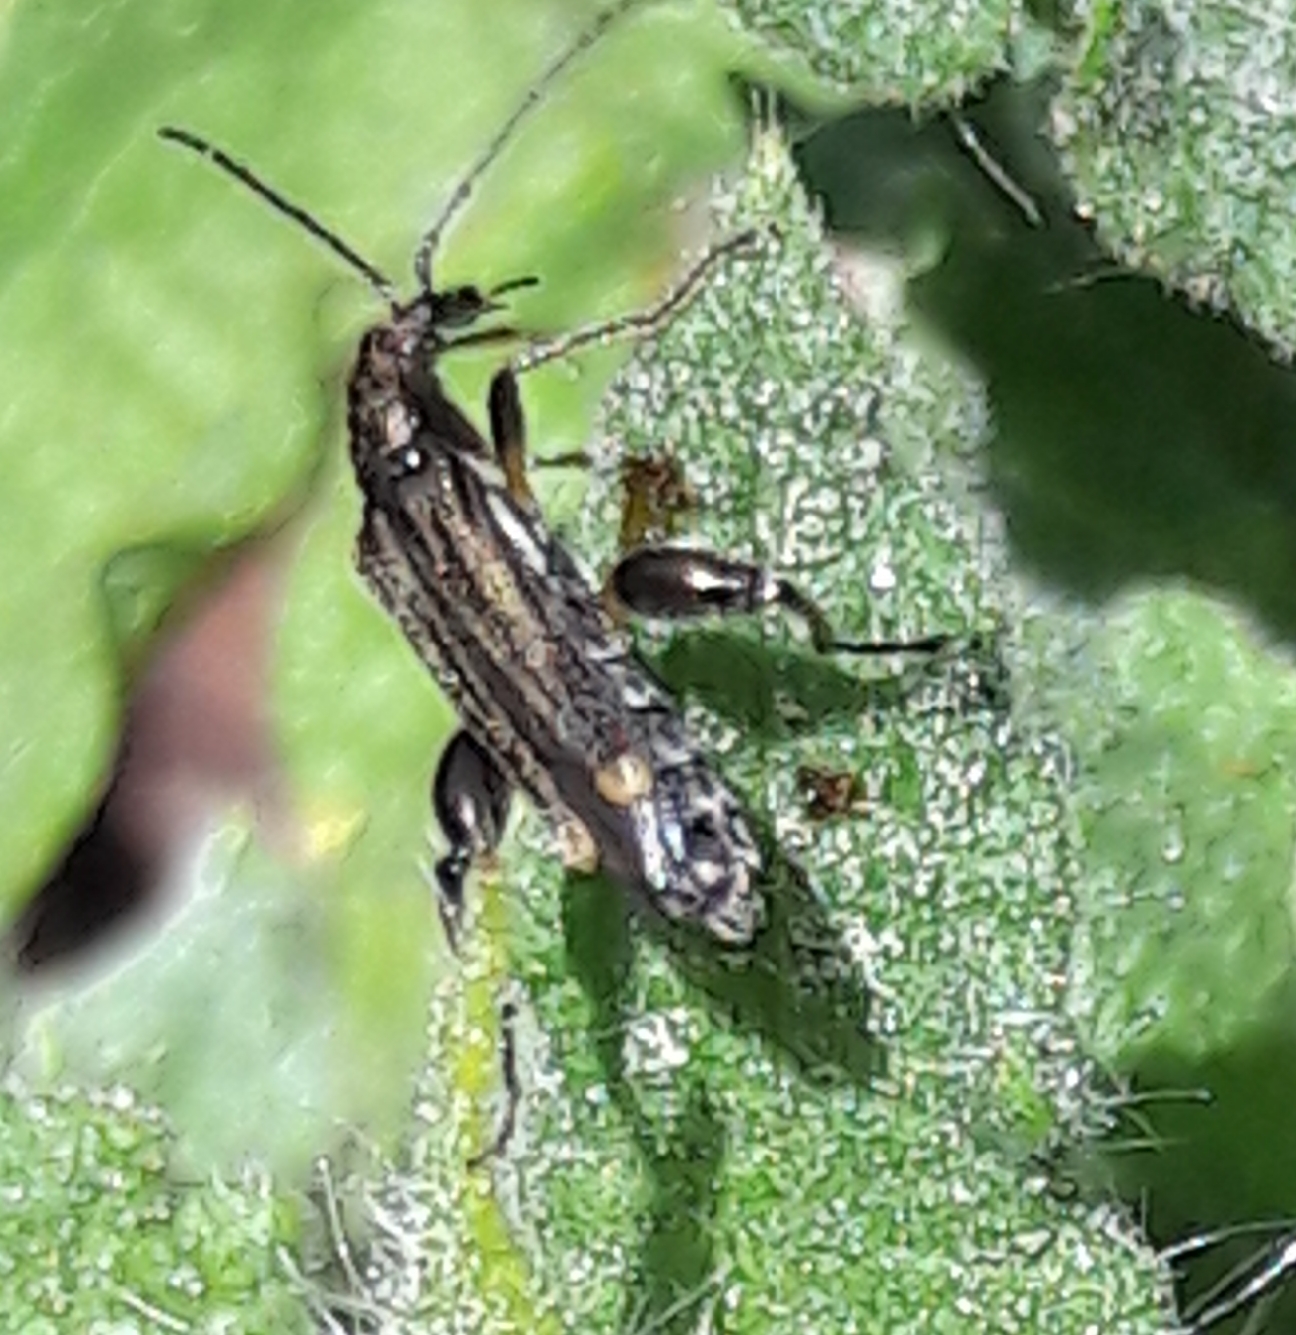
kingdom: Animalia
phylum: Arthropoda
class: Insecta
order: Coleoptera
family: Oedemeridae
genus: Oedemera
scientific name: Oedemera
